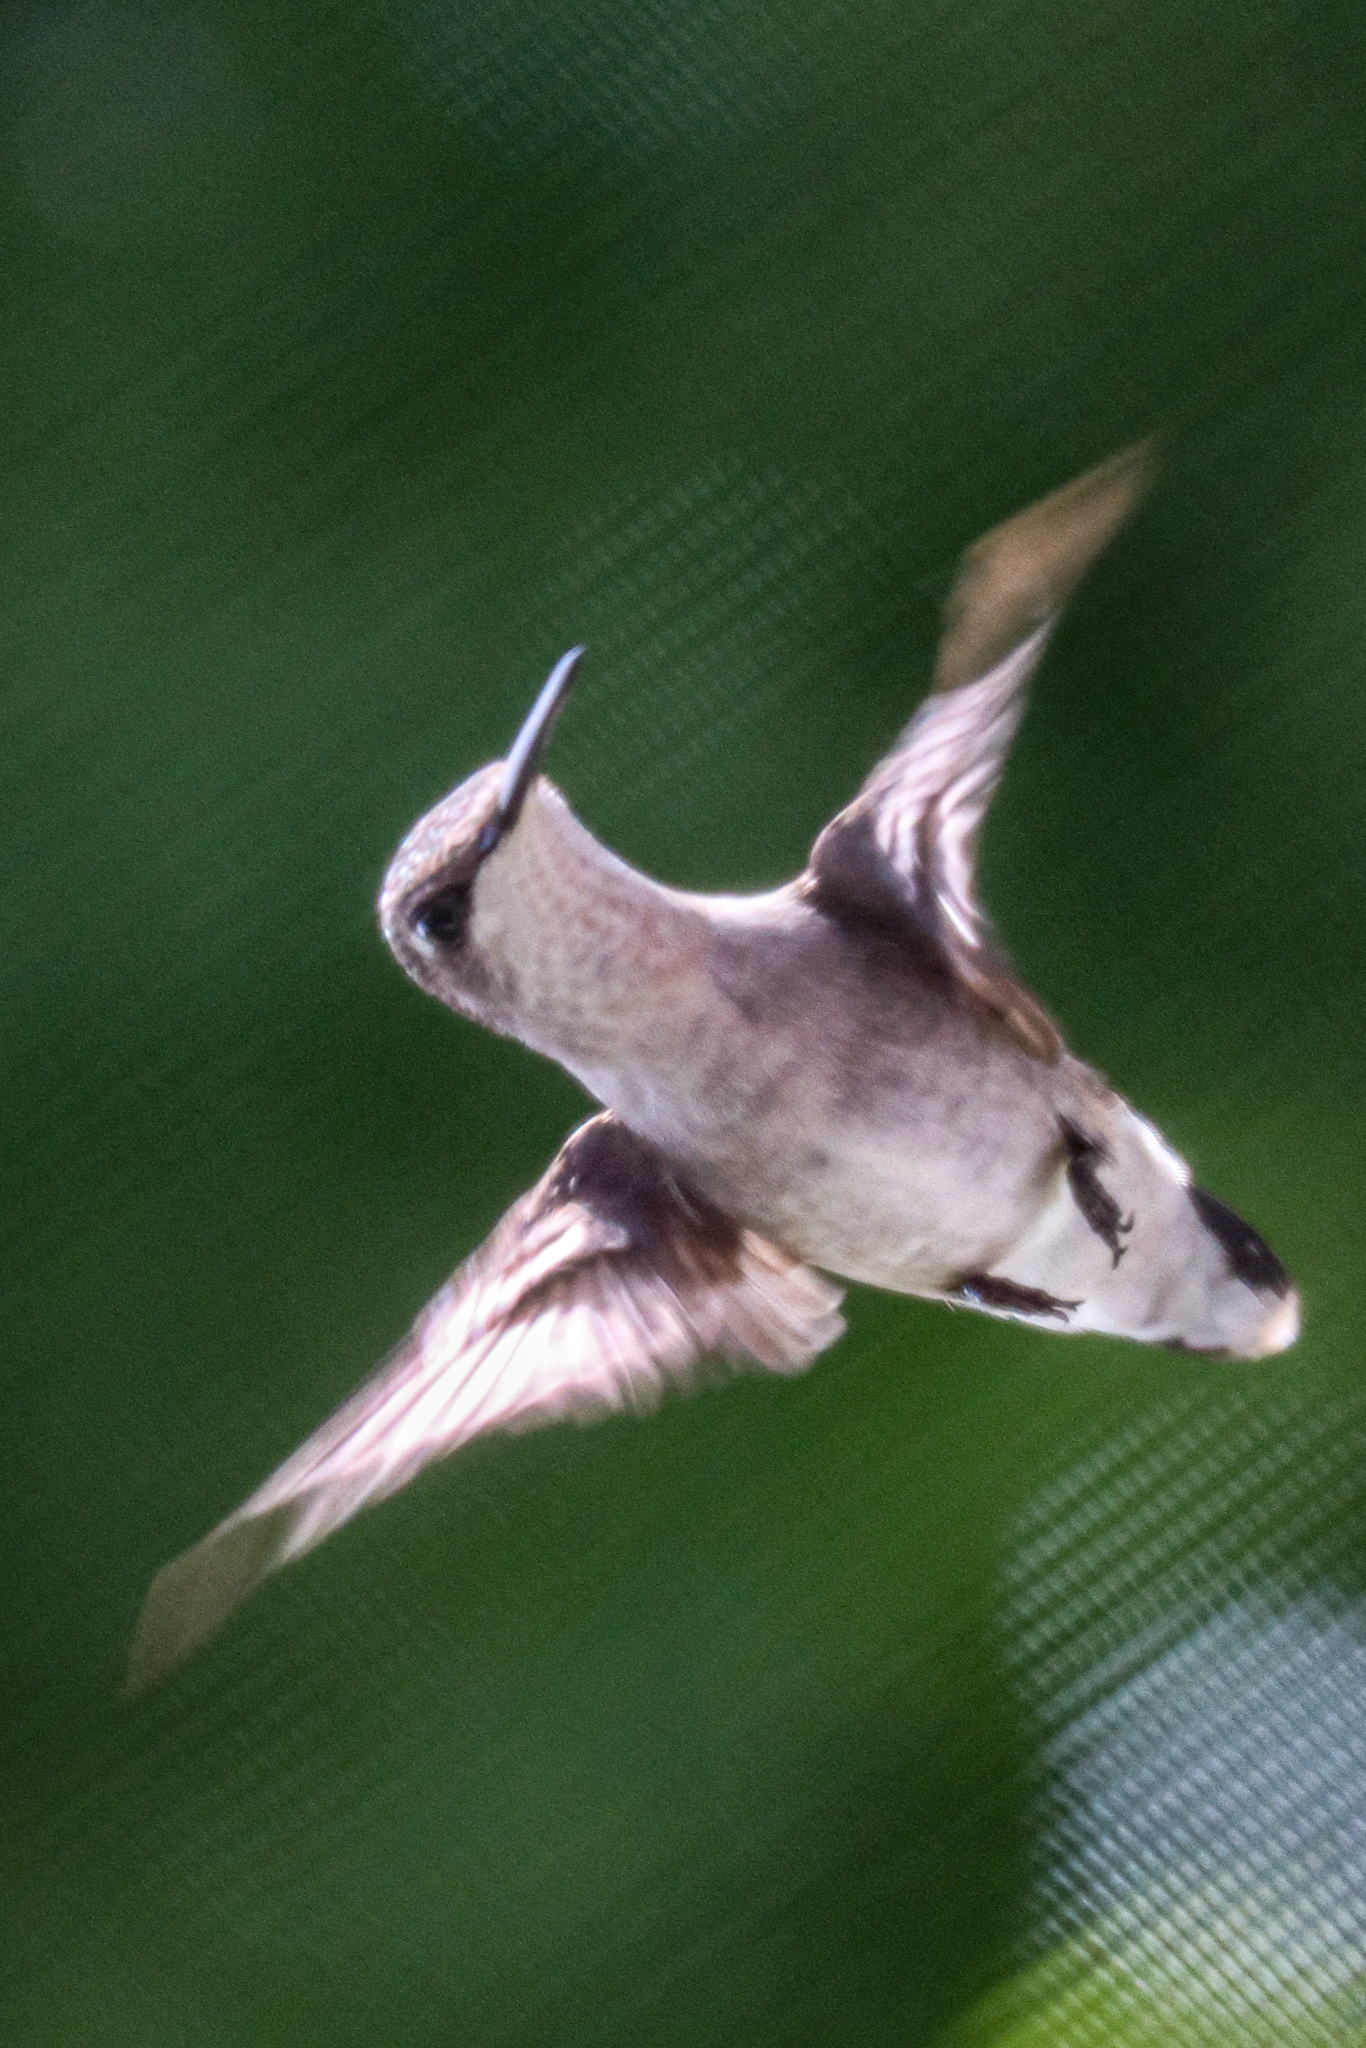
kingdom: Animalia
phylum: Chordata
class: Aves
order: Apodiformes
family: Trochilidae
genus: Archilochus
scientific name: Archilochus colubris
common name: Ruby-throated hummingbird
